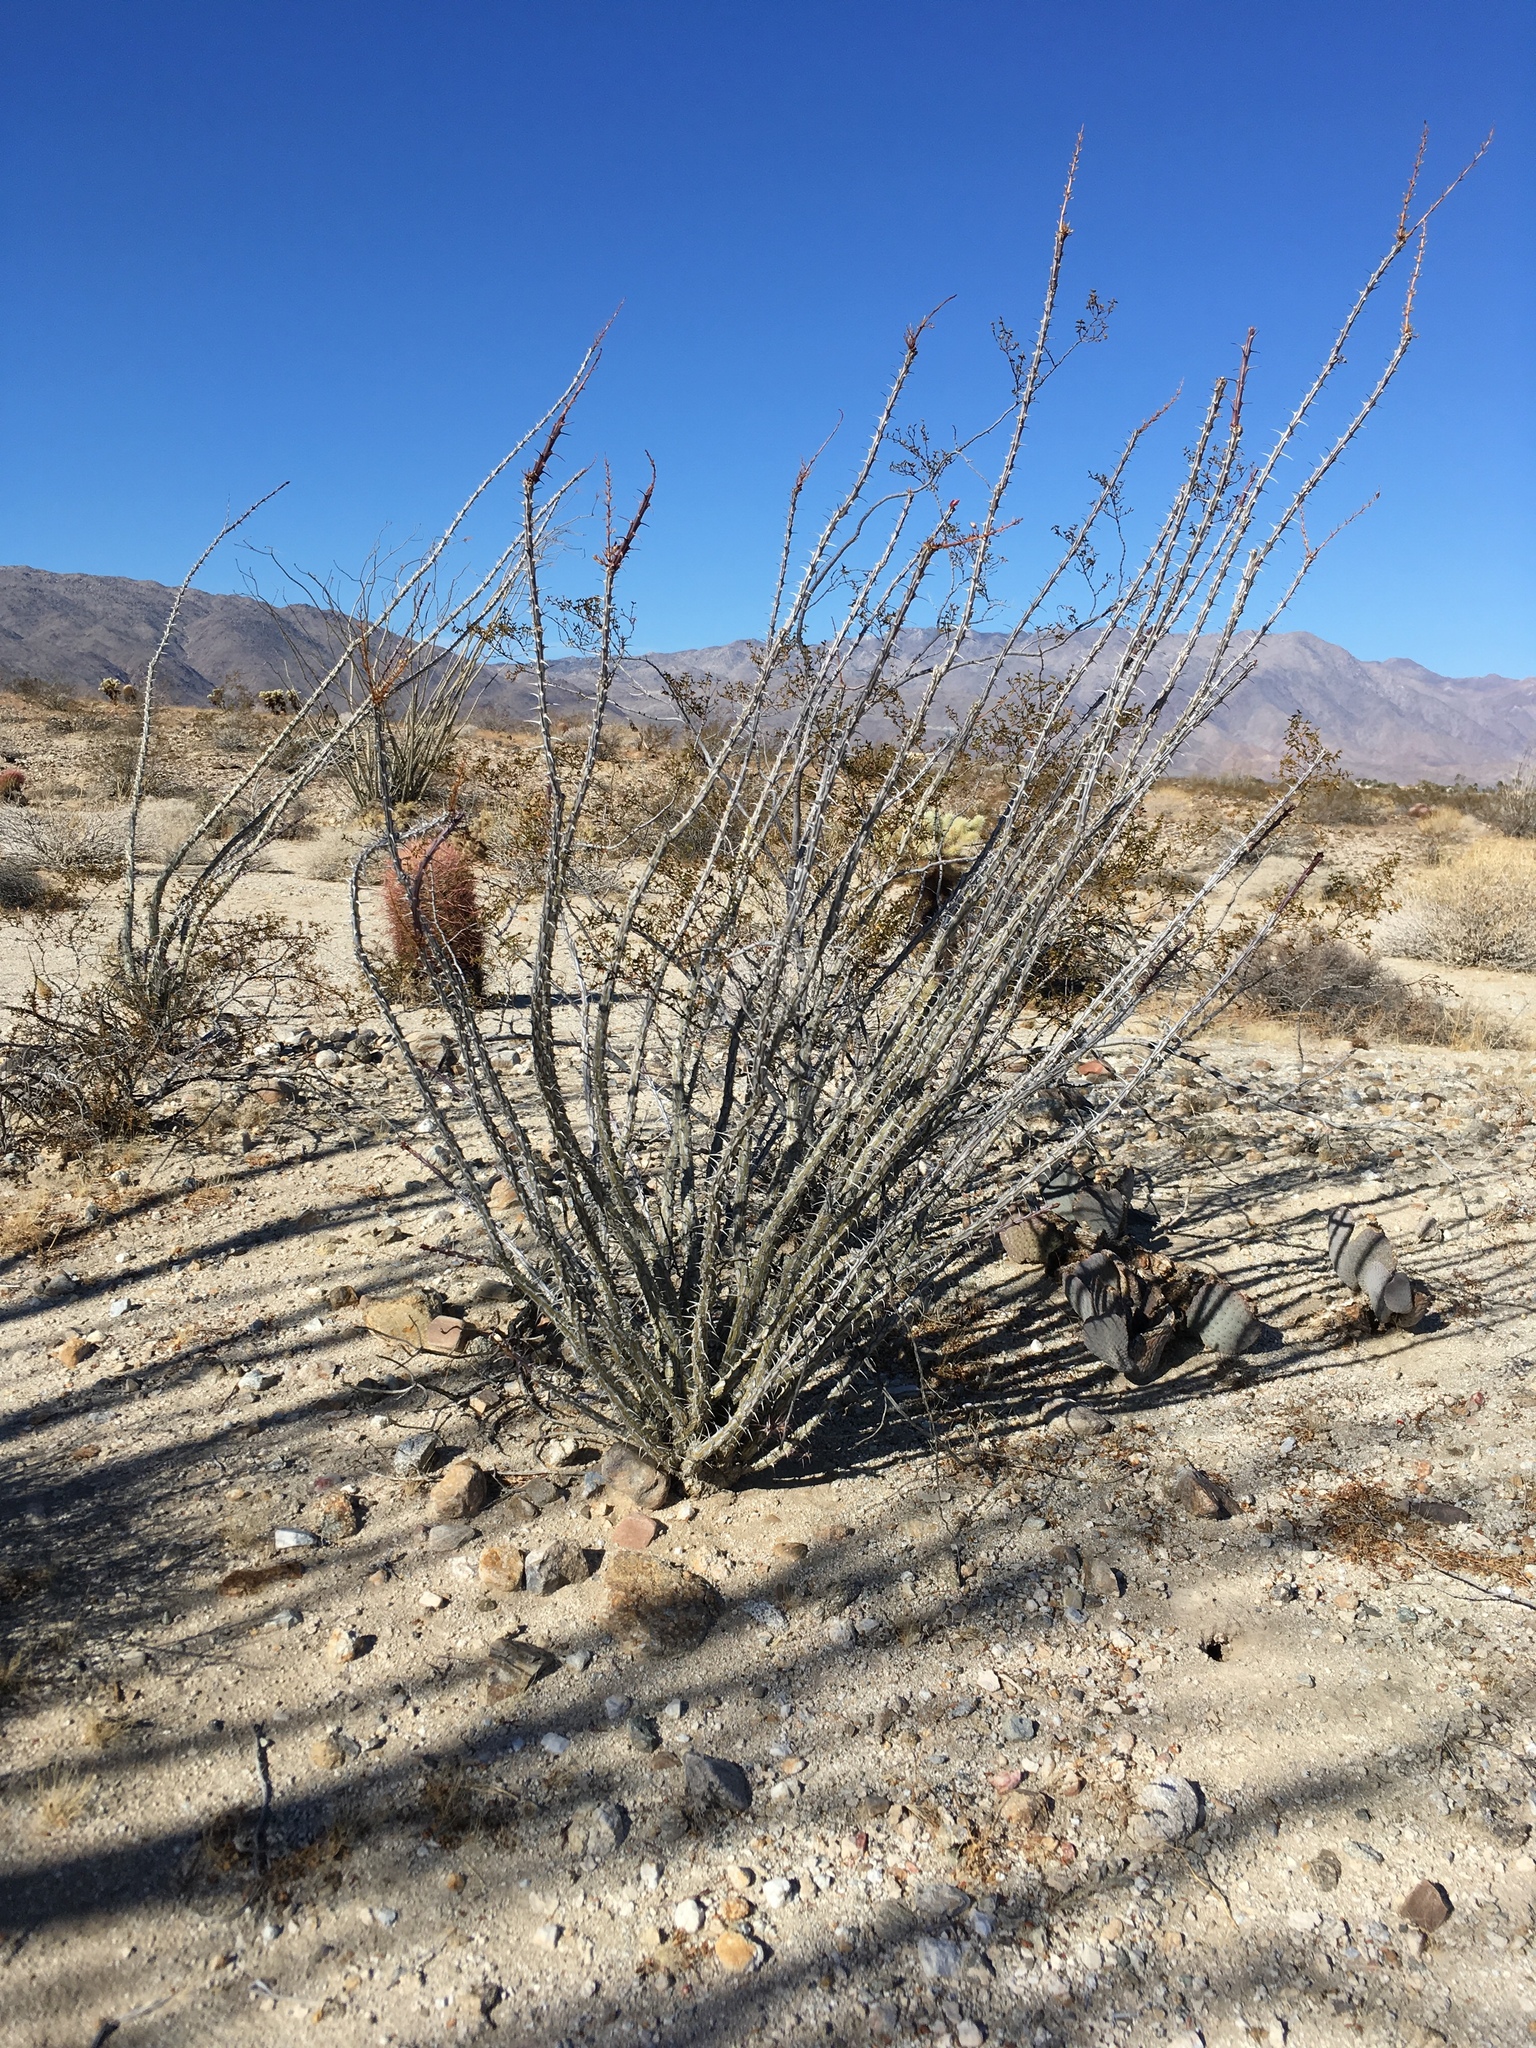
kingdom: Plantae
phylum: Tracheophyta
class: Magnoliopsida
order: Ericales
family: Fouquieriaceae
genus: Fouquieria
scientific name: Fouquieria splendens
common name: Vine-cactus
